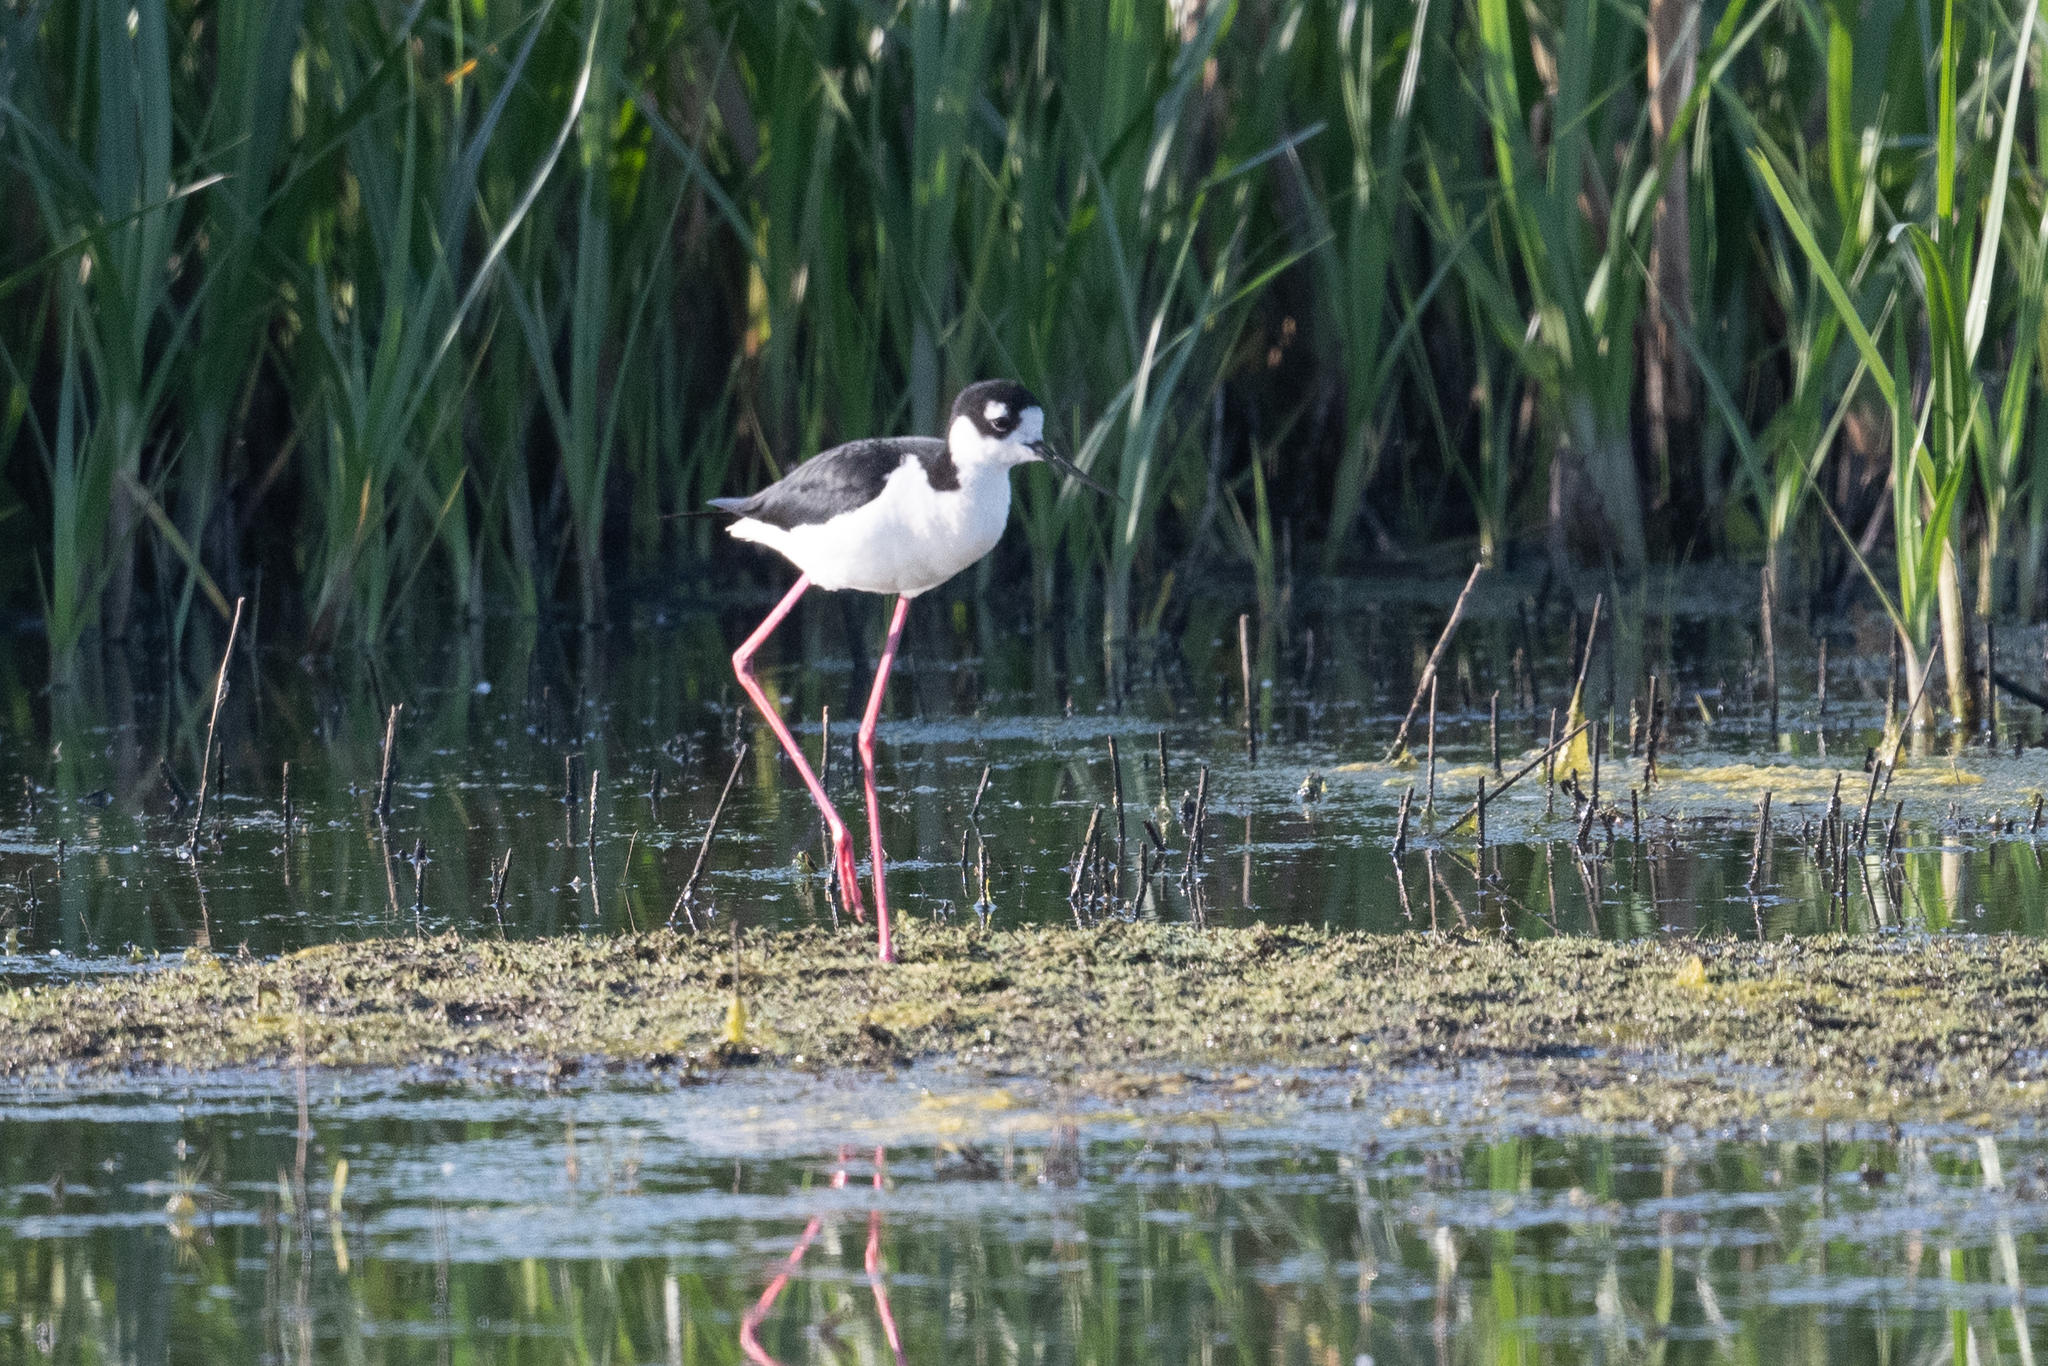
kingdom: Animalia
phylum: Chordata
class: Aves
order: Charadriiformes
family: Recurvirostridae
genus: Himantopus
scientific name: Himantopus mexicanus
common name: Black-necked stilt
